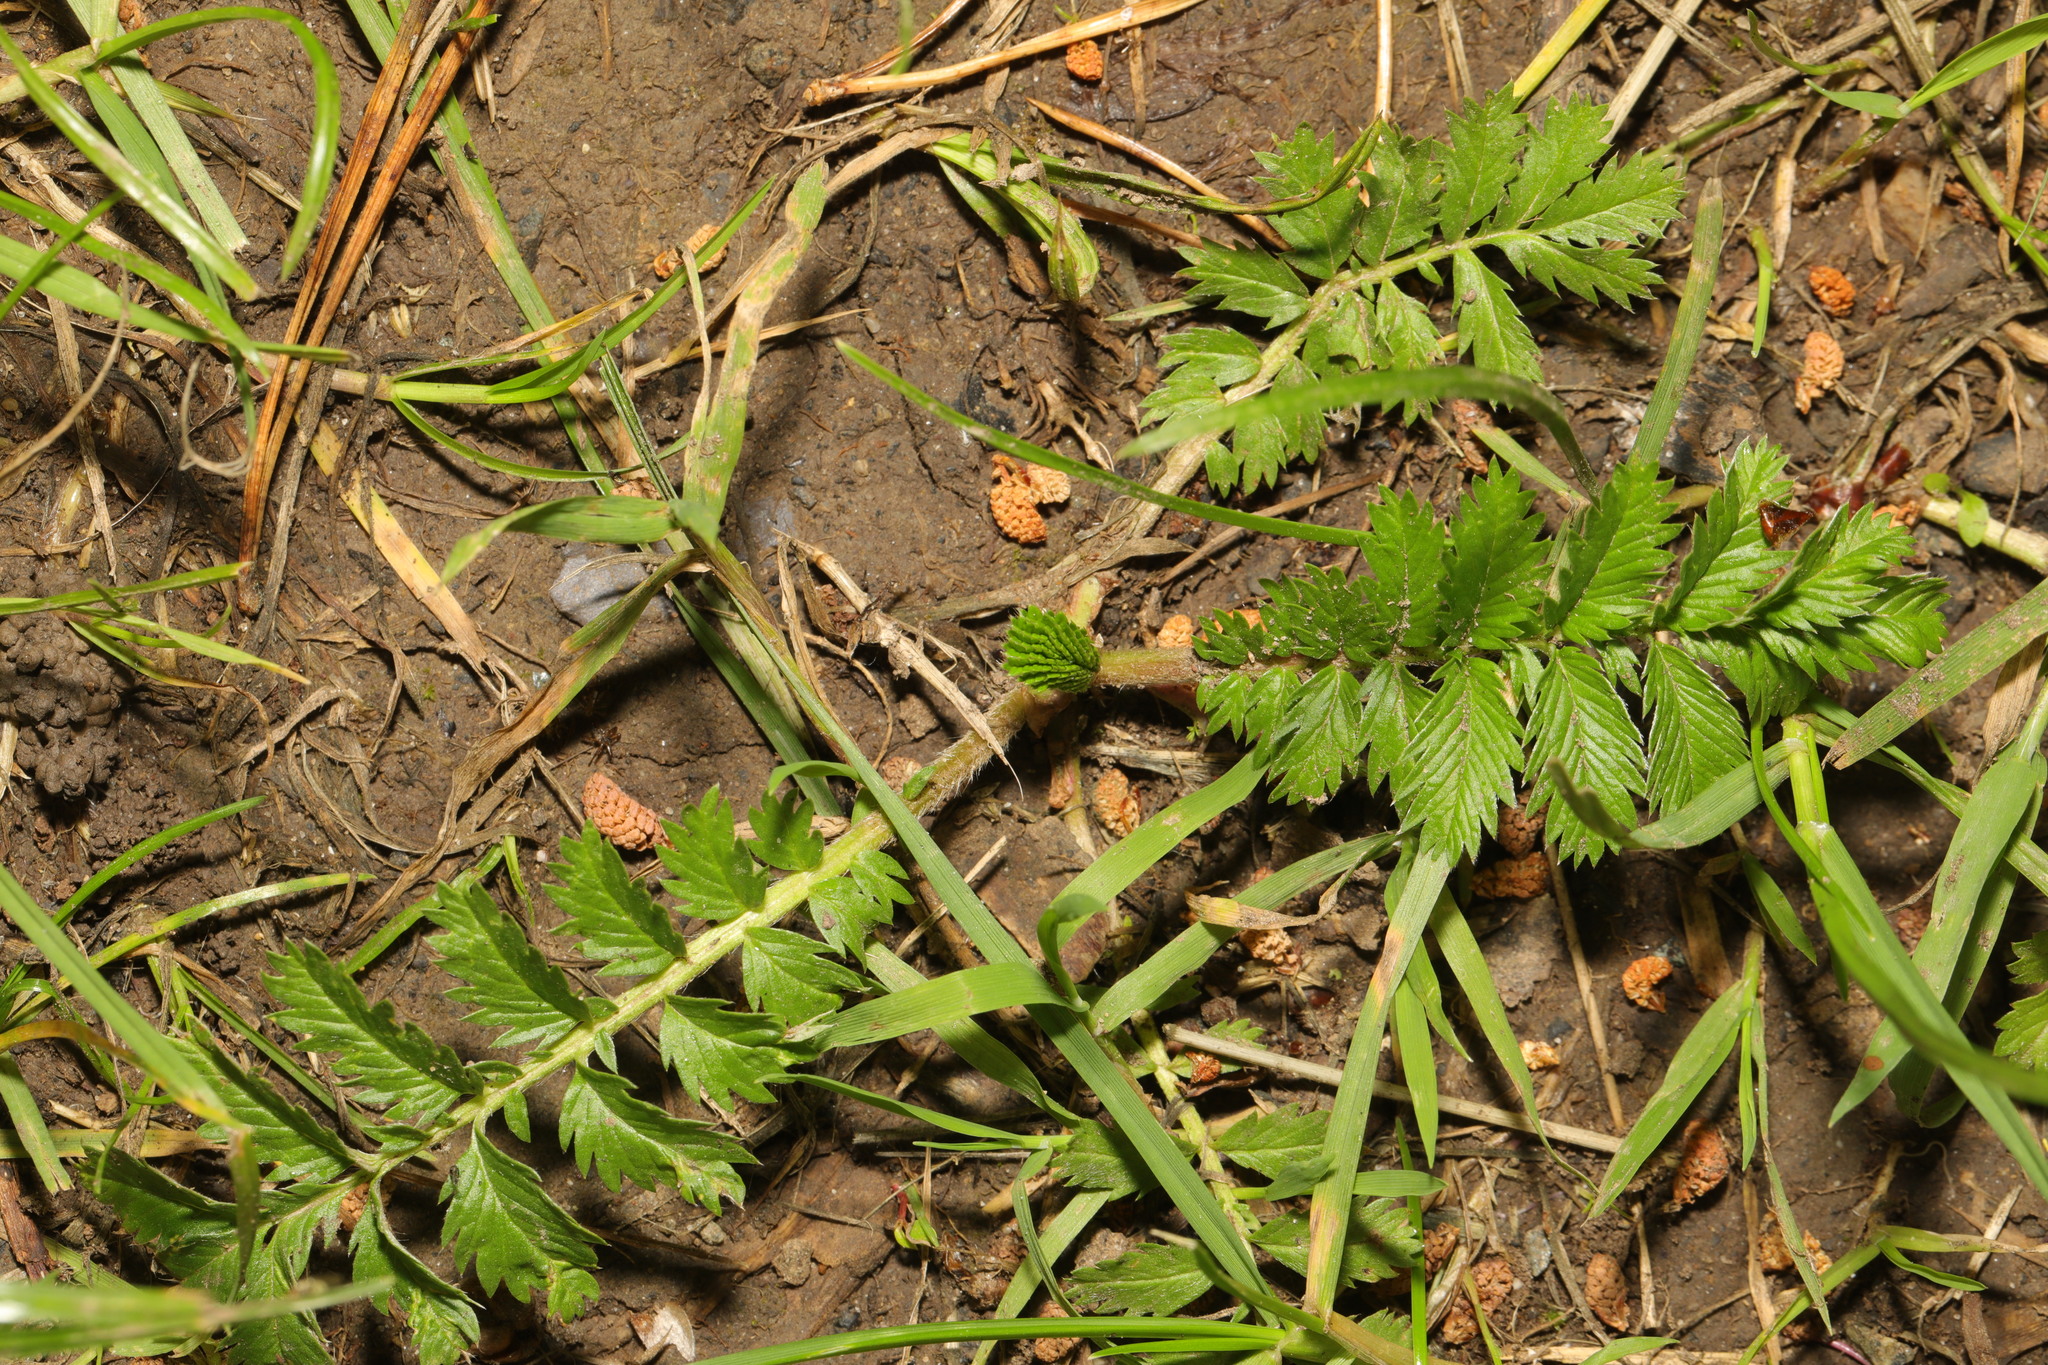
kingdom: Plantae
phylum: Tracheophyta
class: Magnoliopsida
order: Rosales
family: Rosaceae
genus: Argentina
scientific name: Argentina anserina
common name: Common silverweed
